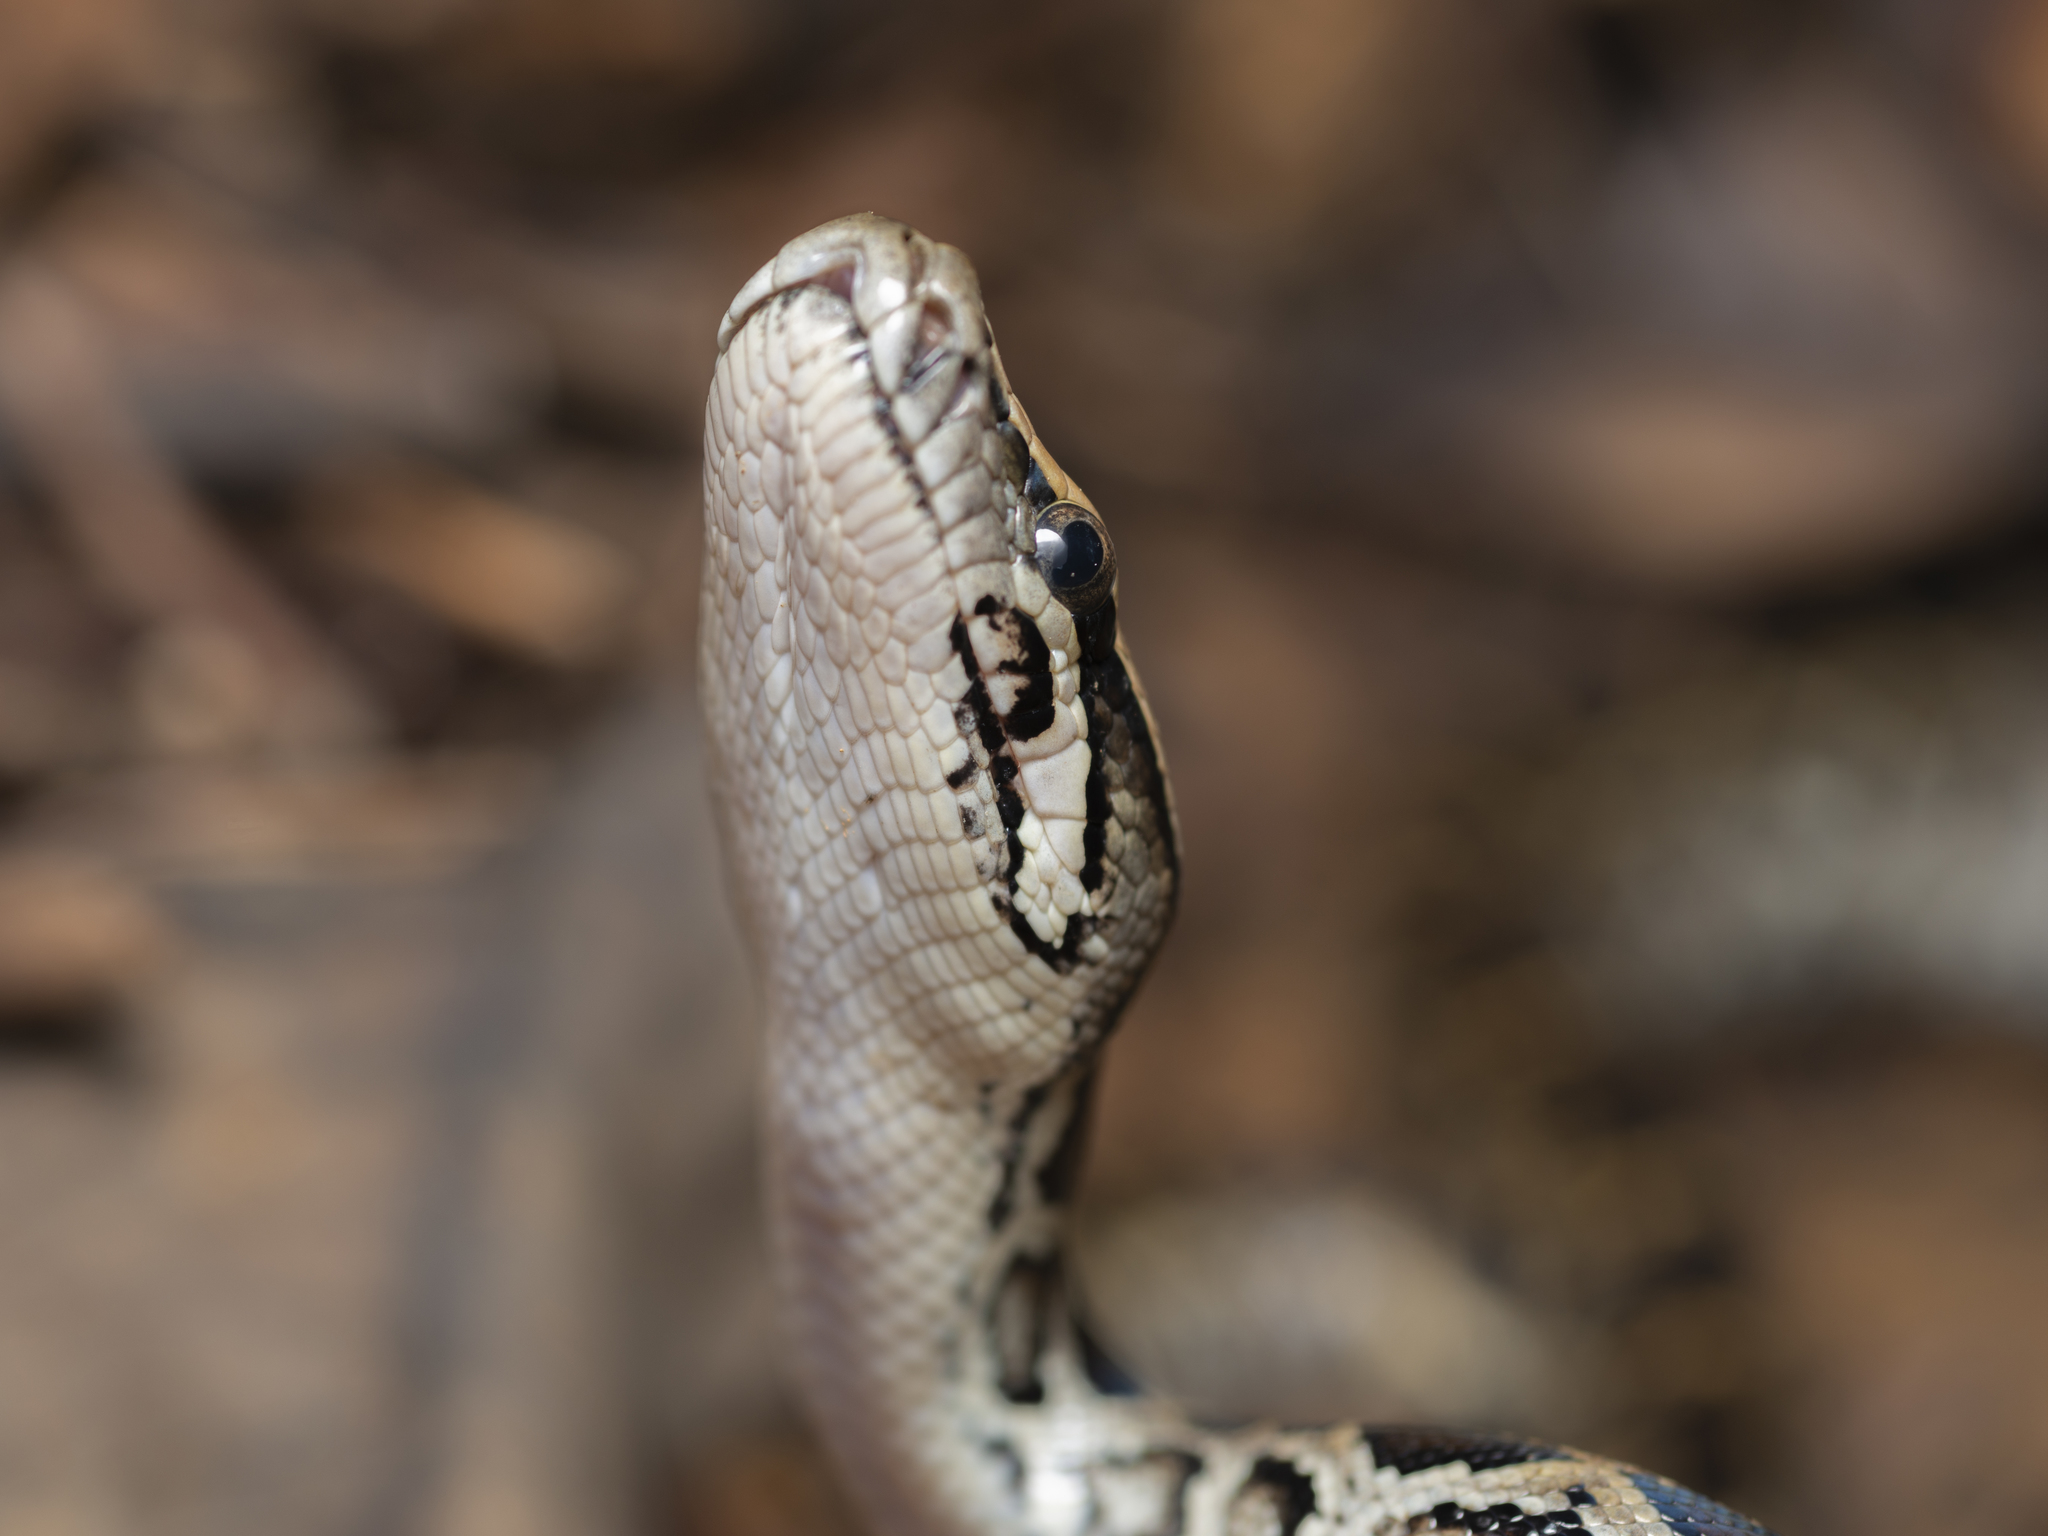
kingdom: Animalia
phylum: Chordata
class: Squamata
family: Pythonidae
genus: Python
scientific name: Python bivittatus
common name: Burmese python
